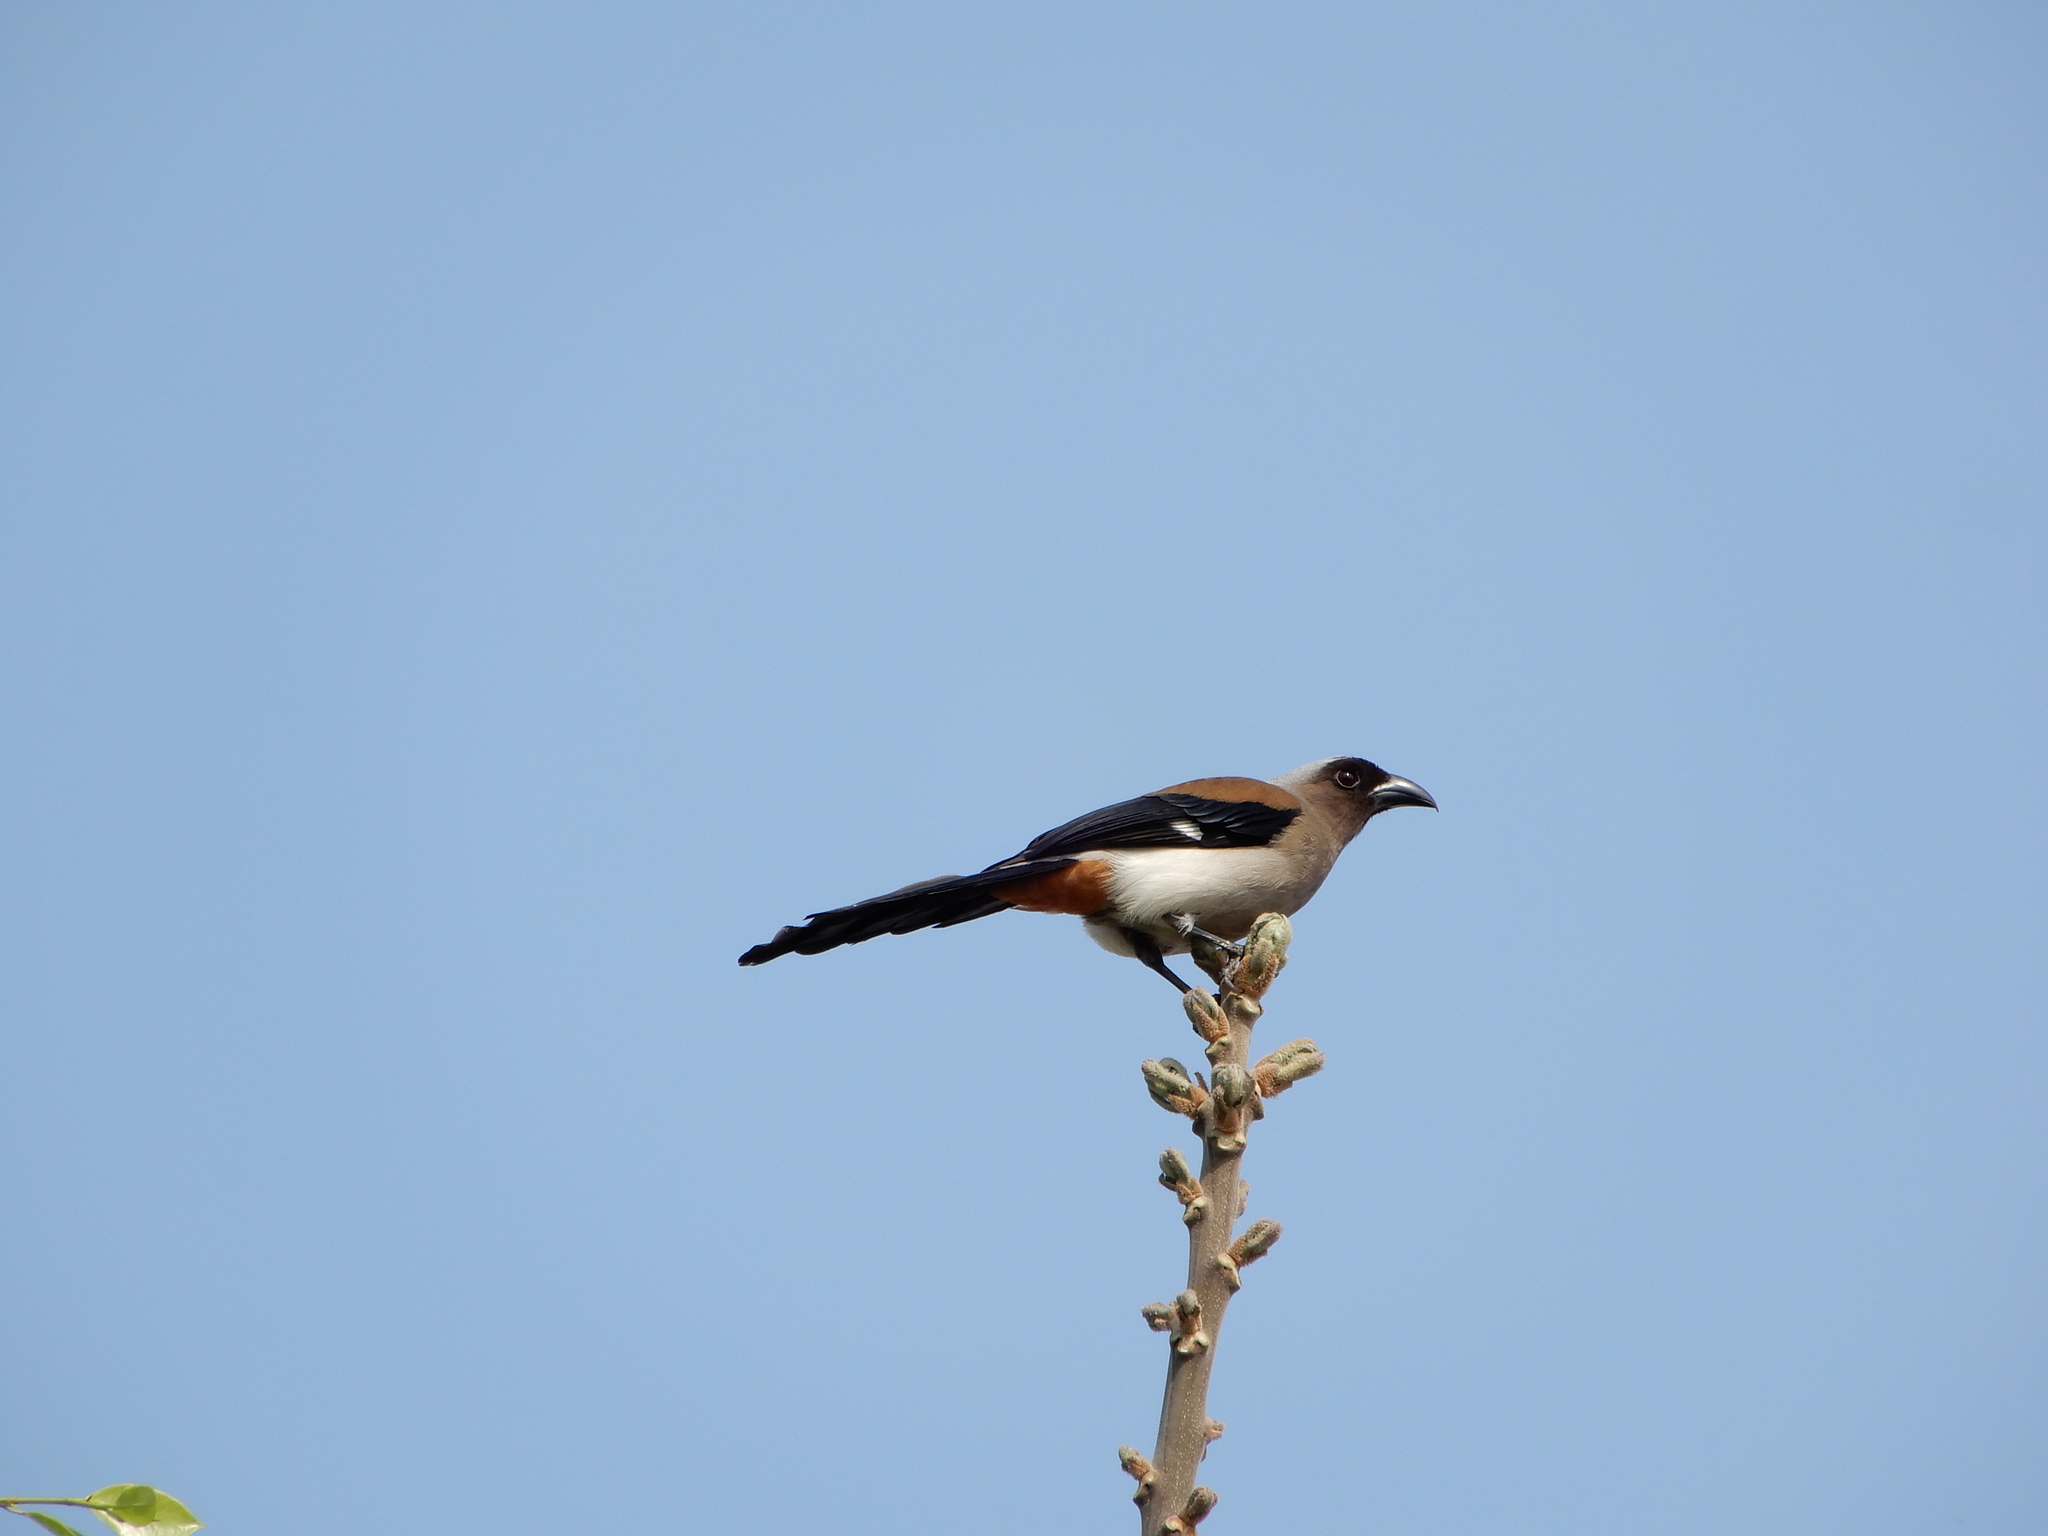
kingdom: Animalia
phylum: Chordata
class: Aves
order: Passeriformes
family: Corvidae
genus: Dendrocitta
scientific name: Dendrocitta formosae
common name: Grey treepie
